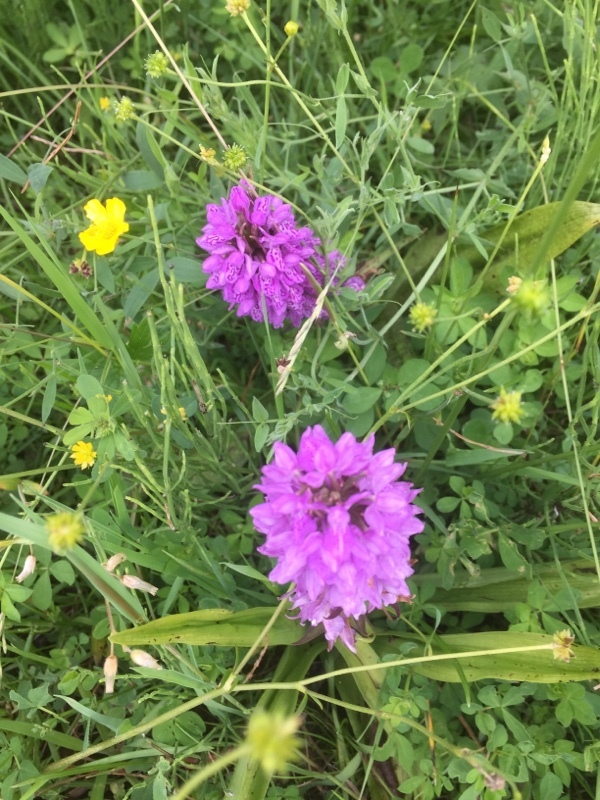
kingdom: Plantae
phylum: Tracheophyta
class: Liliopsida
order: Asparagales
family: Orchidaceae
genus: Dactylorhiza
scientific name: Dactylorhiza majalis
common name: Marsh orchid
